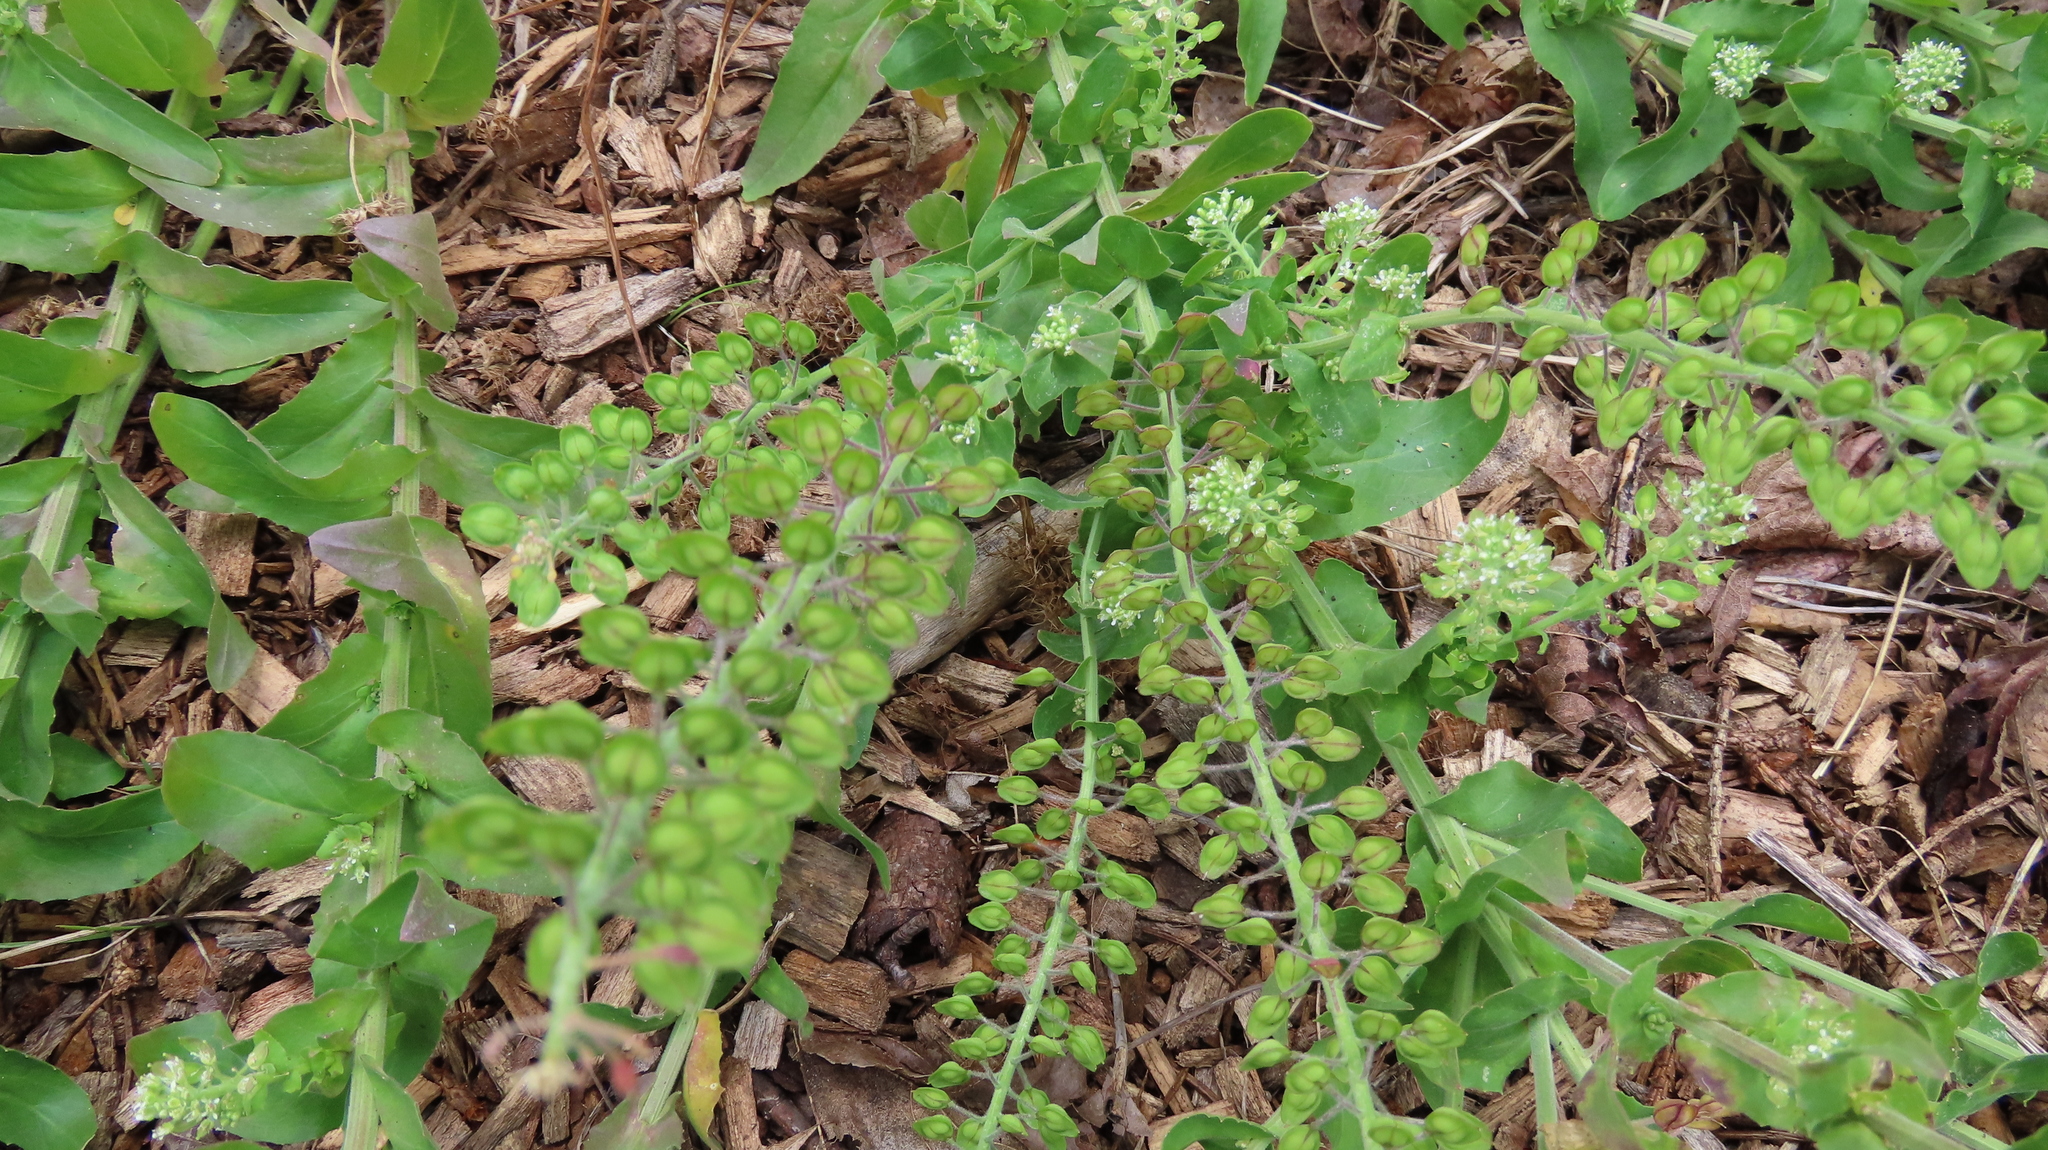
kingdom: Plantae
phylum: Tracheophyta
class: Magnoliopsida
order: Brassicales
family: Brassicaceae
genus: Lepidium
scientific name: Lepidium campestre
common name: Field pepperwort
